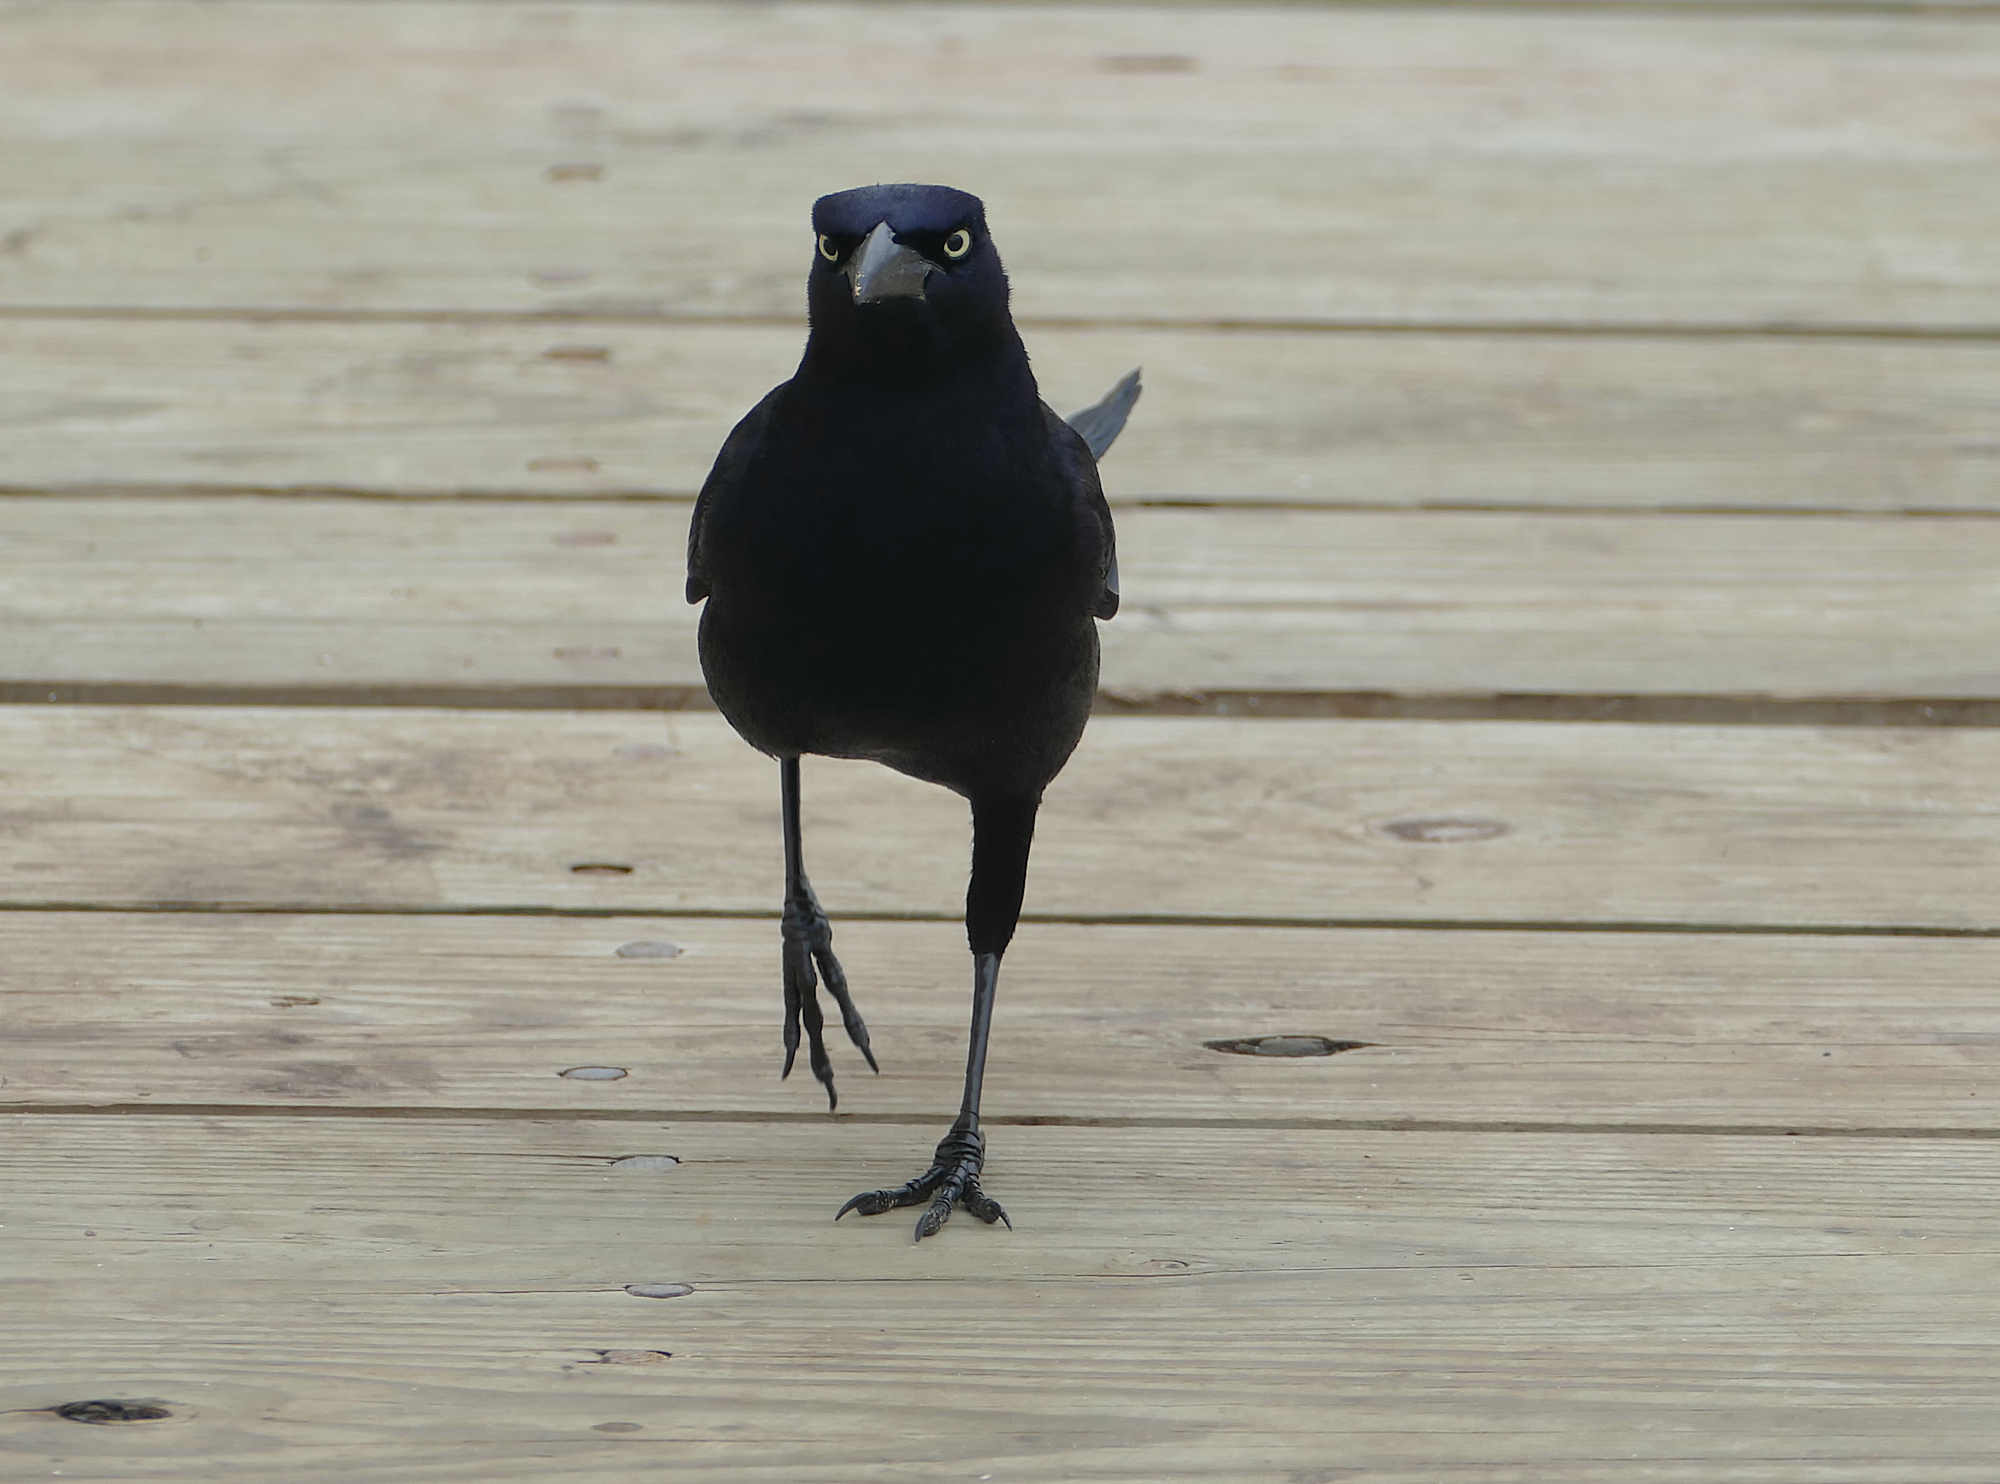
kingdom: Animalia
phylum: Chordata
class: Aves
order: Passeriformes
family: Icteridae
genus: Quiscalus
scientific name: Quiscalus mexicanus
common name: Great-tailed grackle
